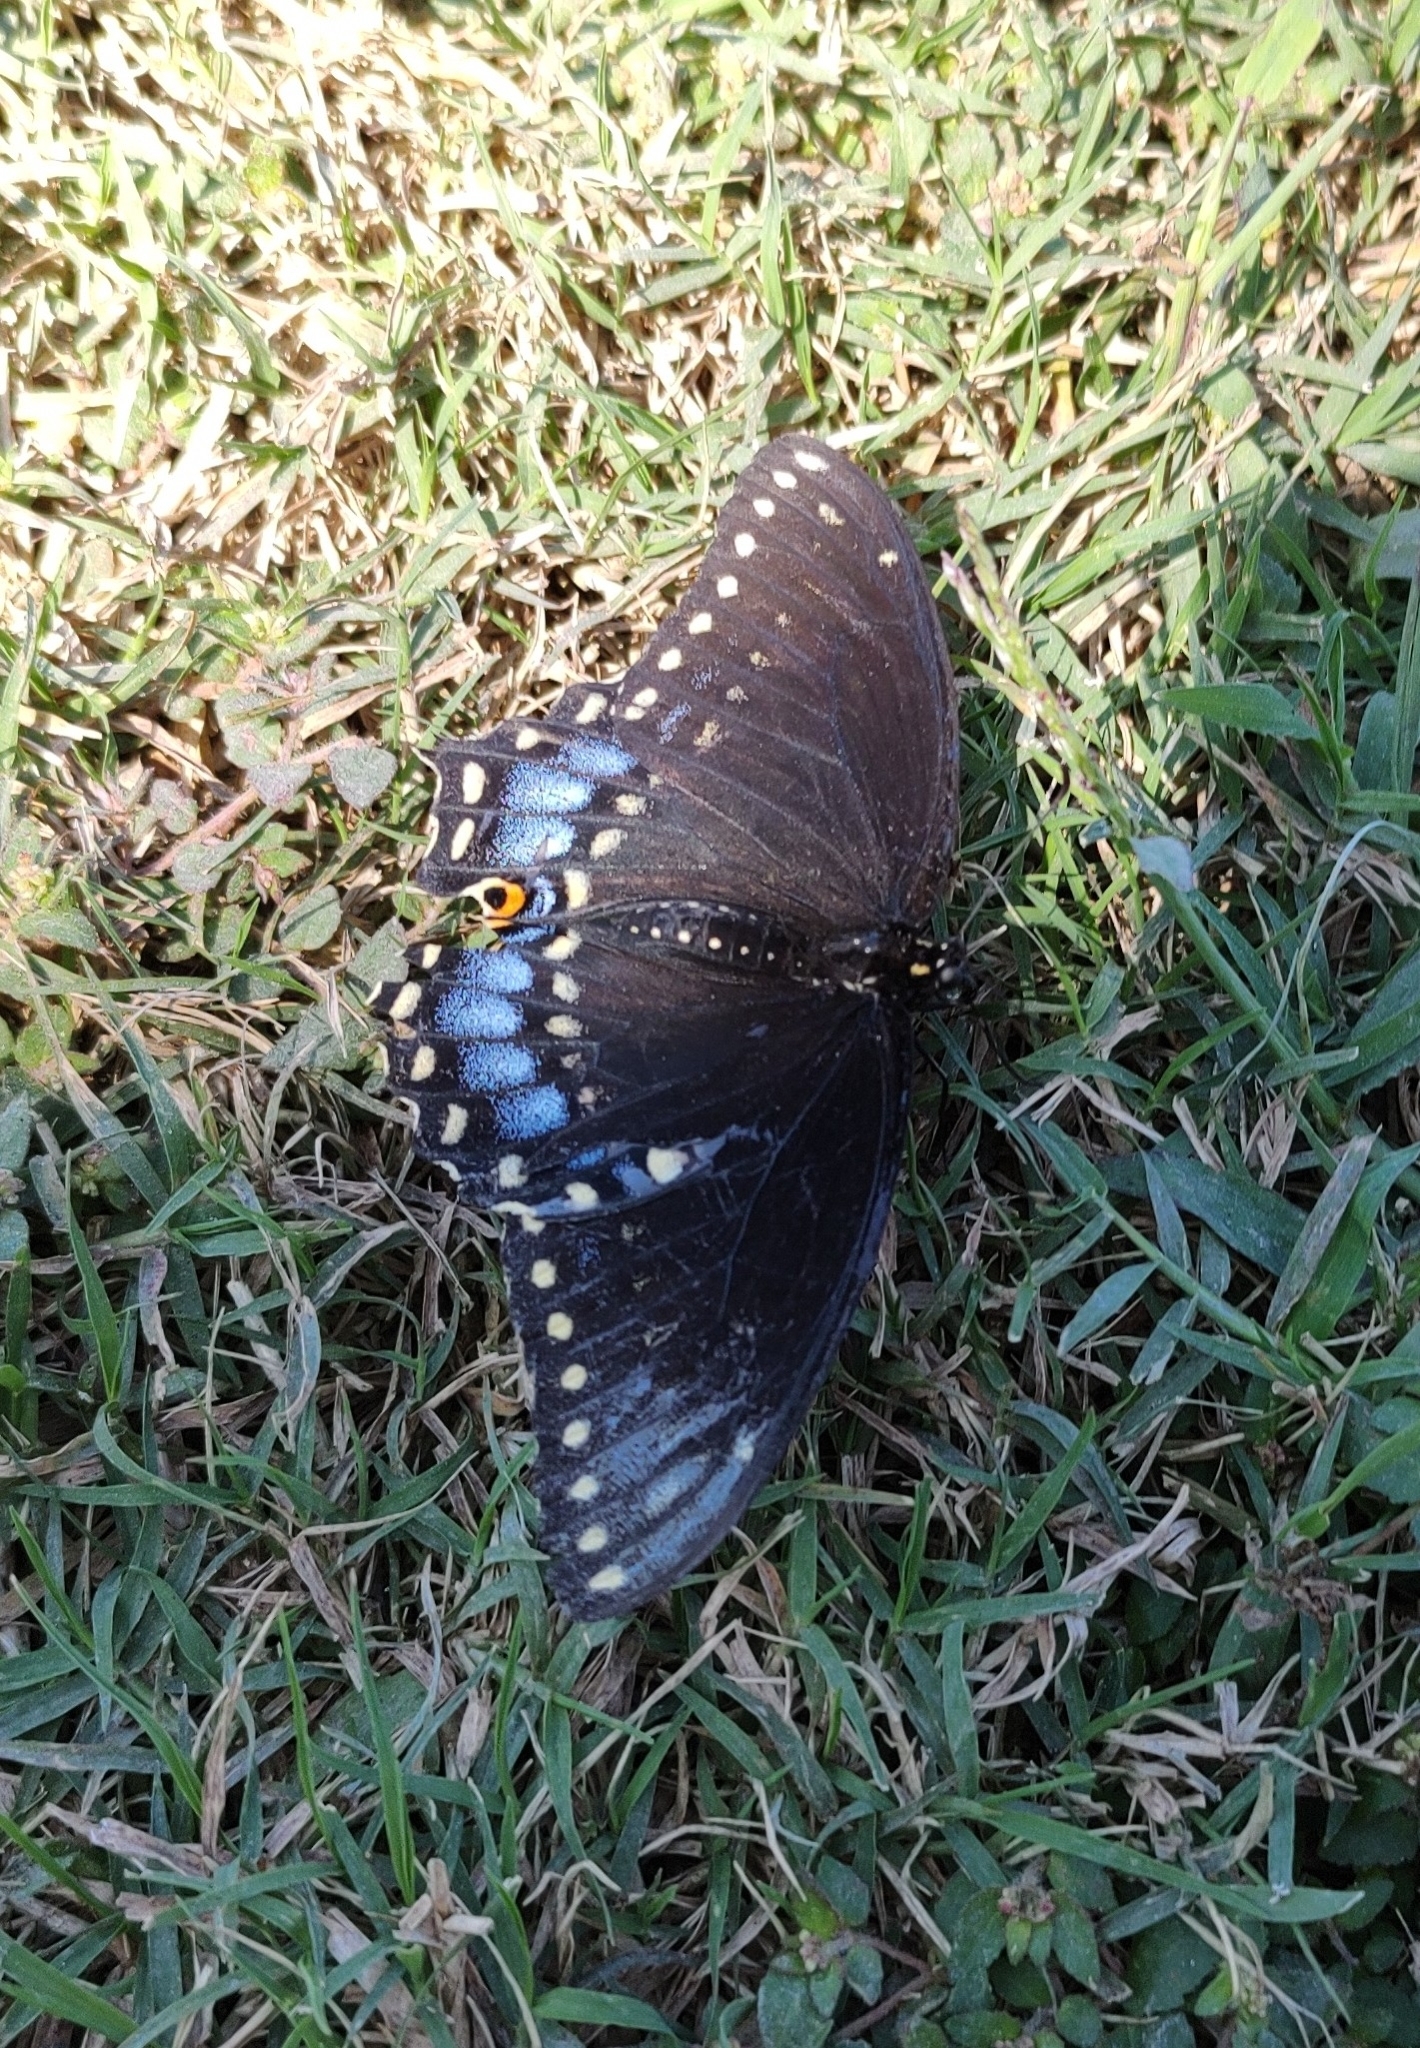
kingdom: Animalia
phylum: Arthropoda
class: Insecta
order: Lepidoptera
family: Papilionidae
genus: Papilio
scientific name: Papilio polyxenes
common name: Black swallowtail
